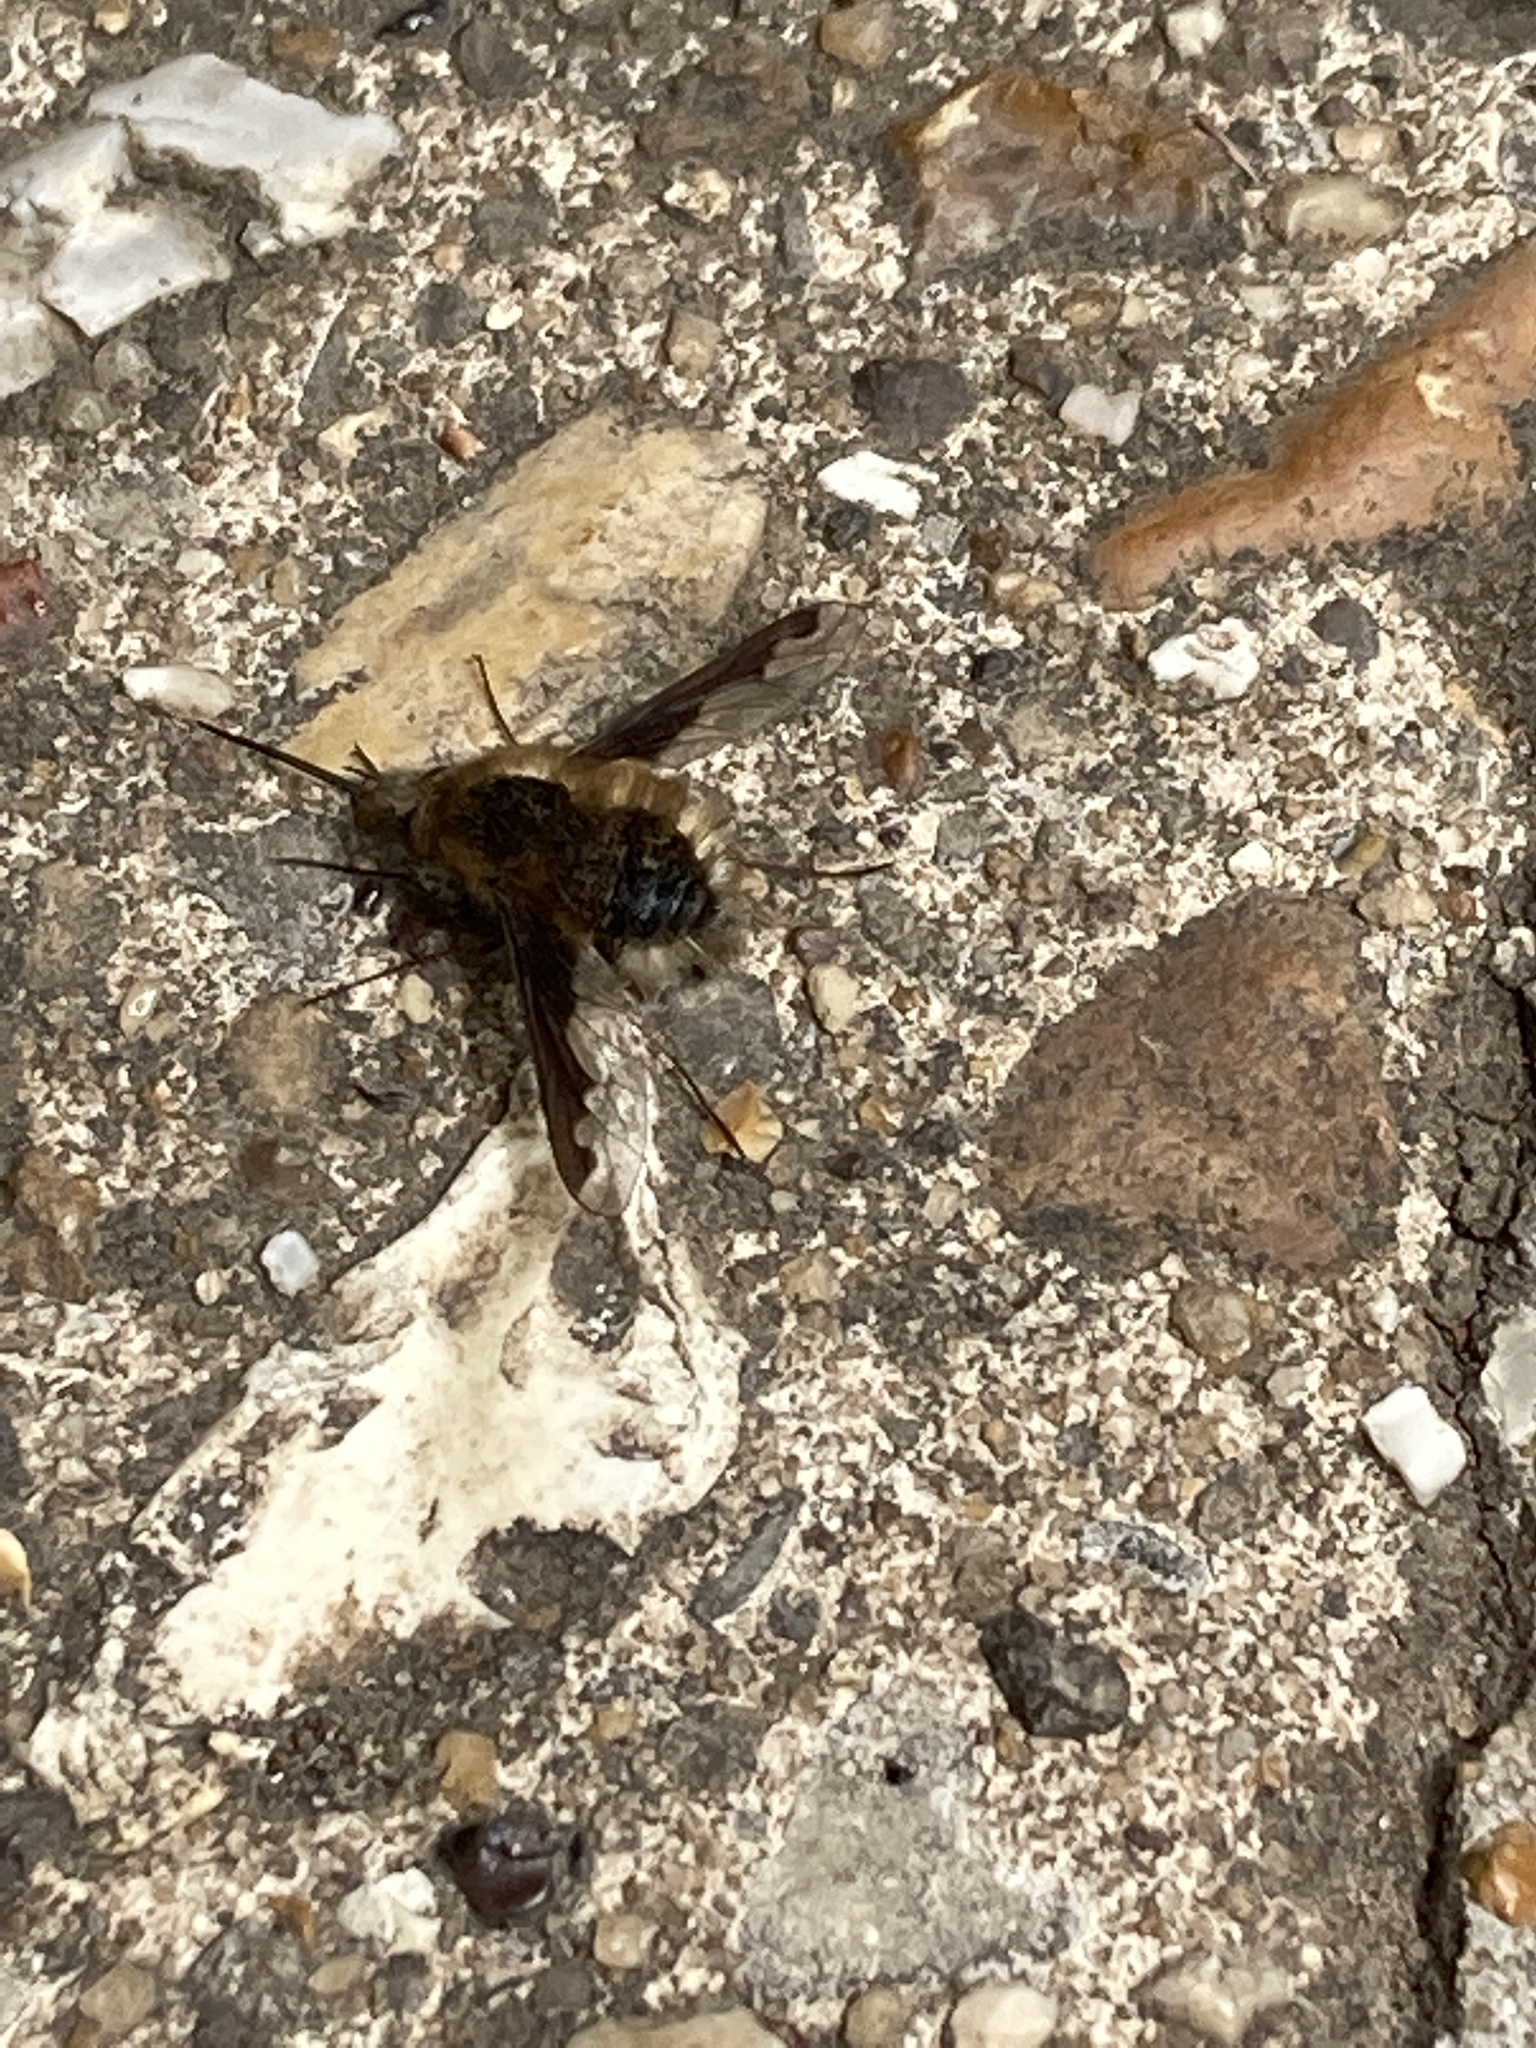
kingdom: Animalia
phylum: Arthropoda
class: Insecta
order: Diptera
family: Bombyliidae
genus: Bombylius
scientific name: Bombylius major
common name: Bee fly
